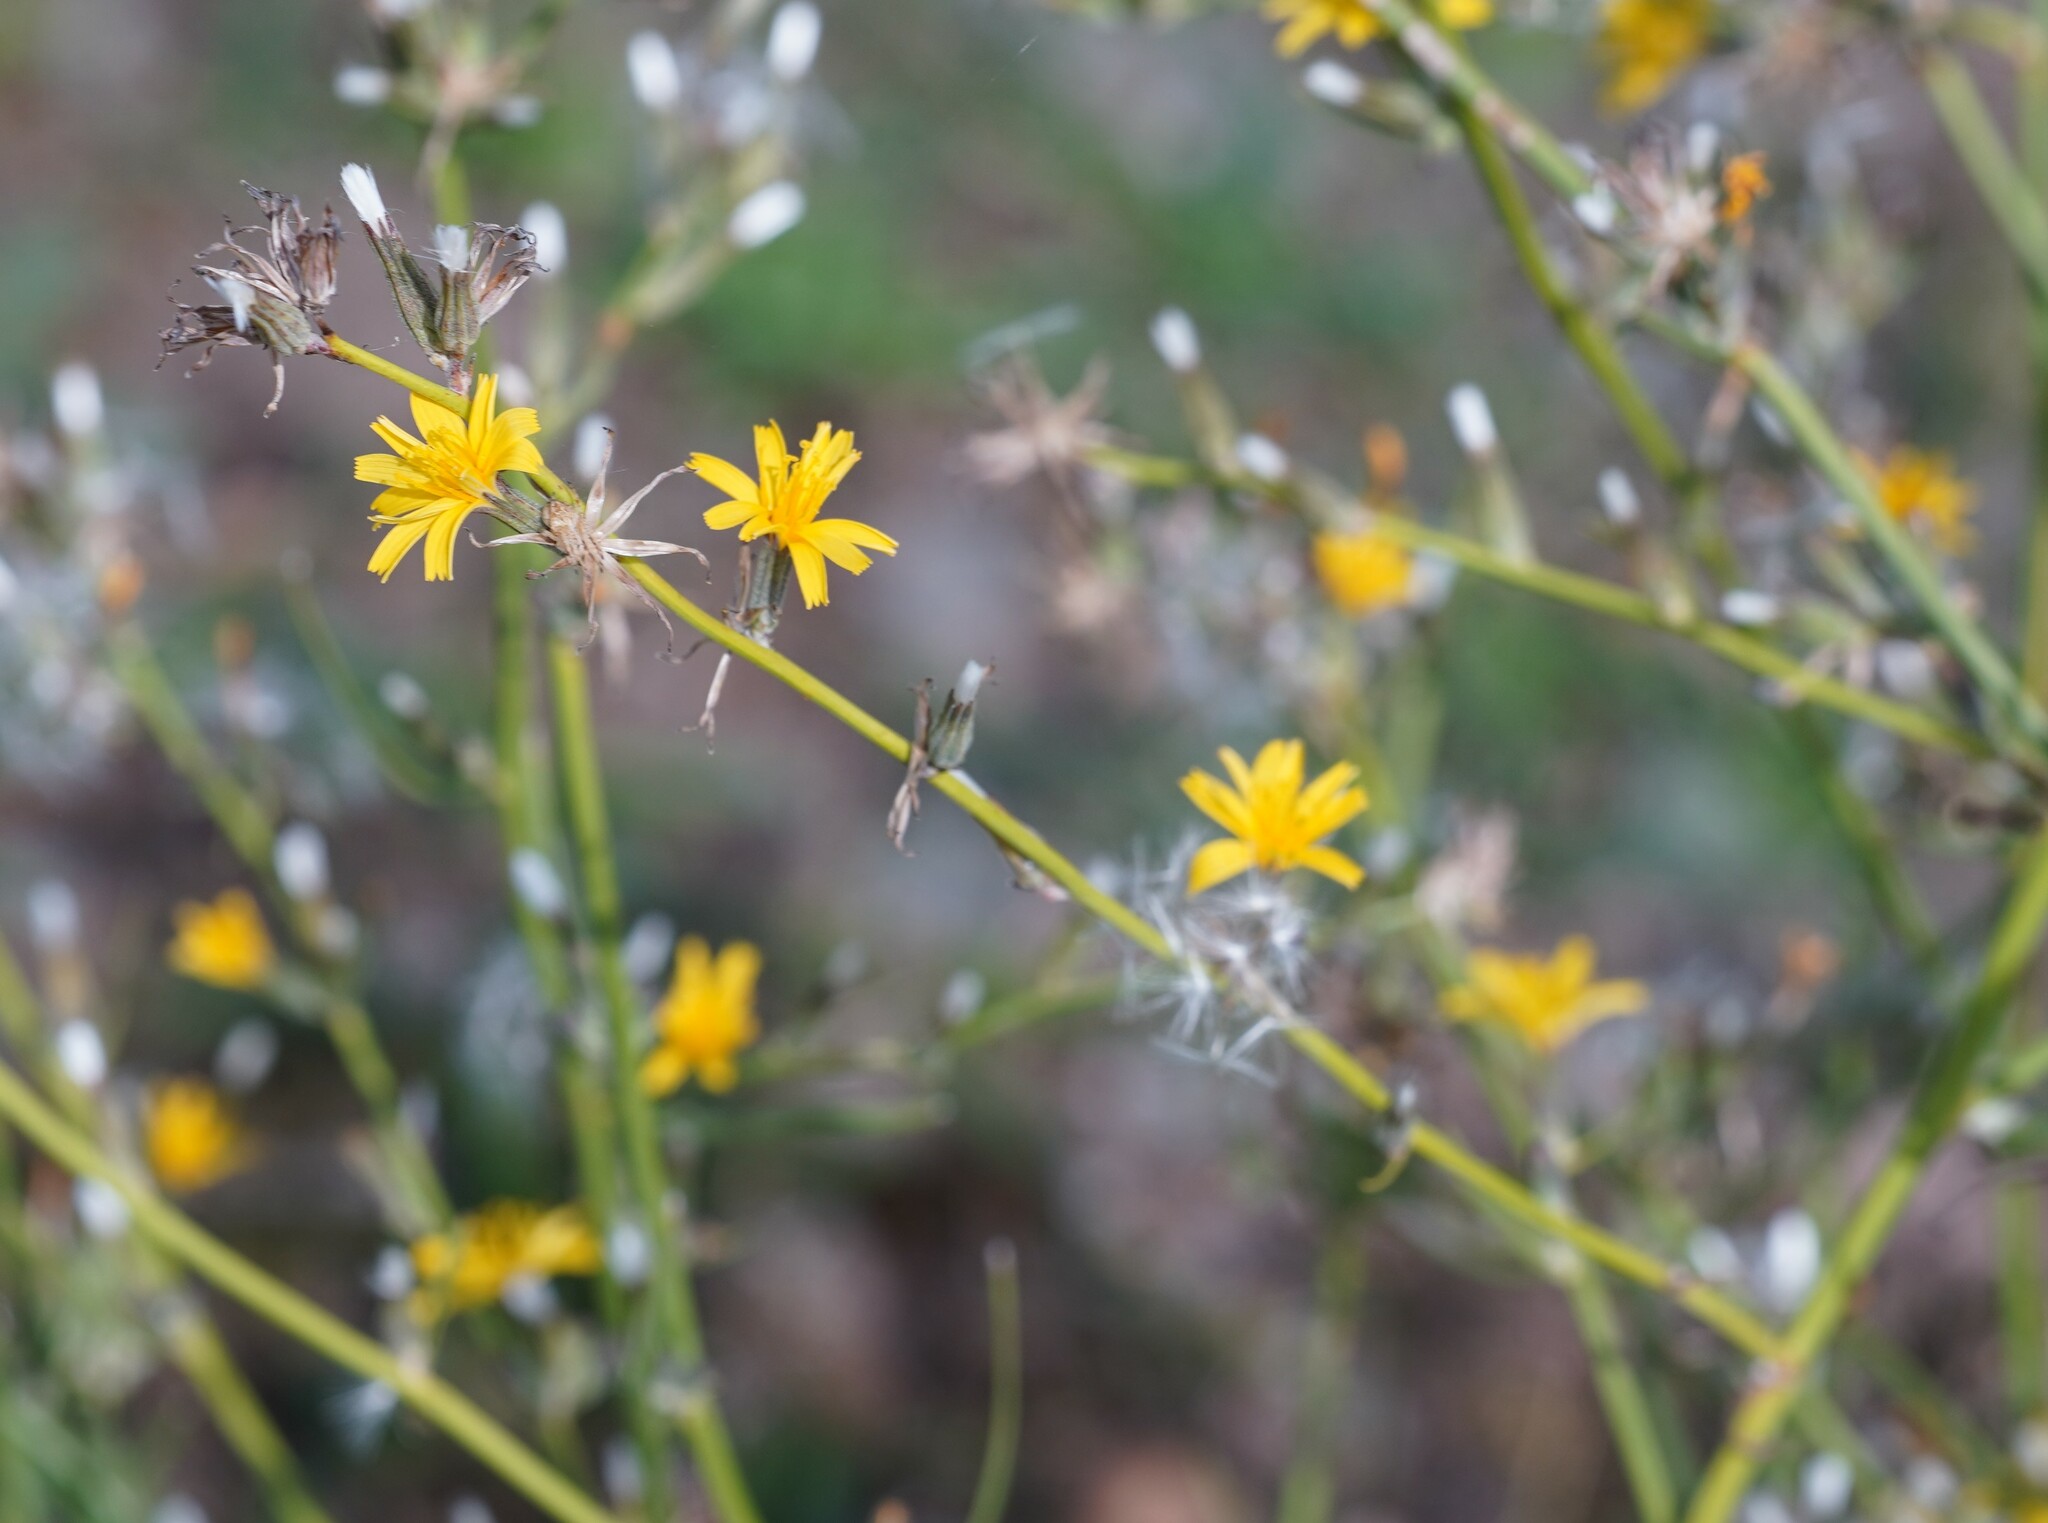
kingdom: Plantae
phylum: Tracheophyta
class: Magnoliopsida
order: Asterales
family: Asteraceae
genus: Chondrilla
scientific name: Chondrilla juncea
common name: Skeleton weed
